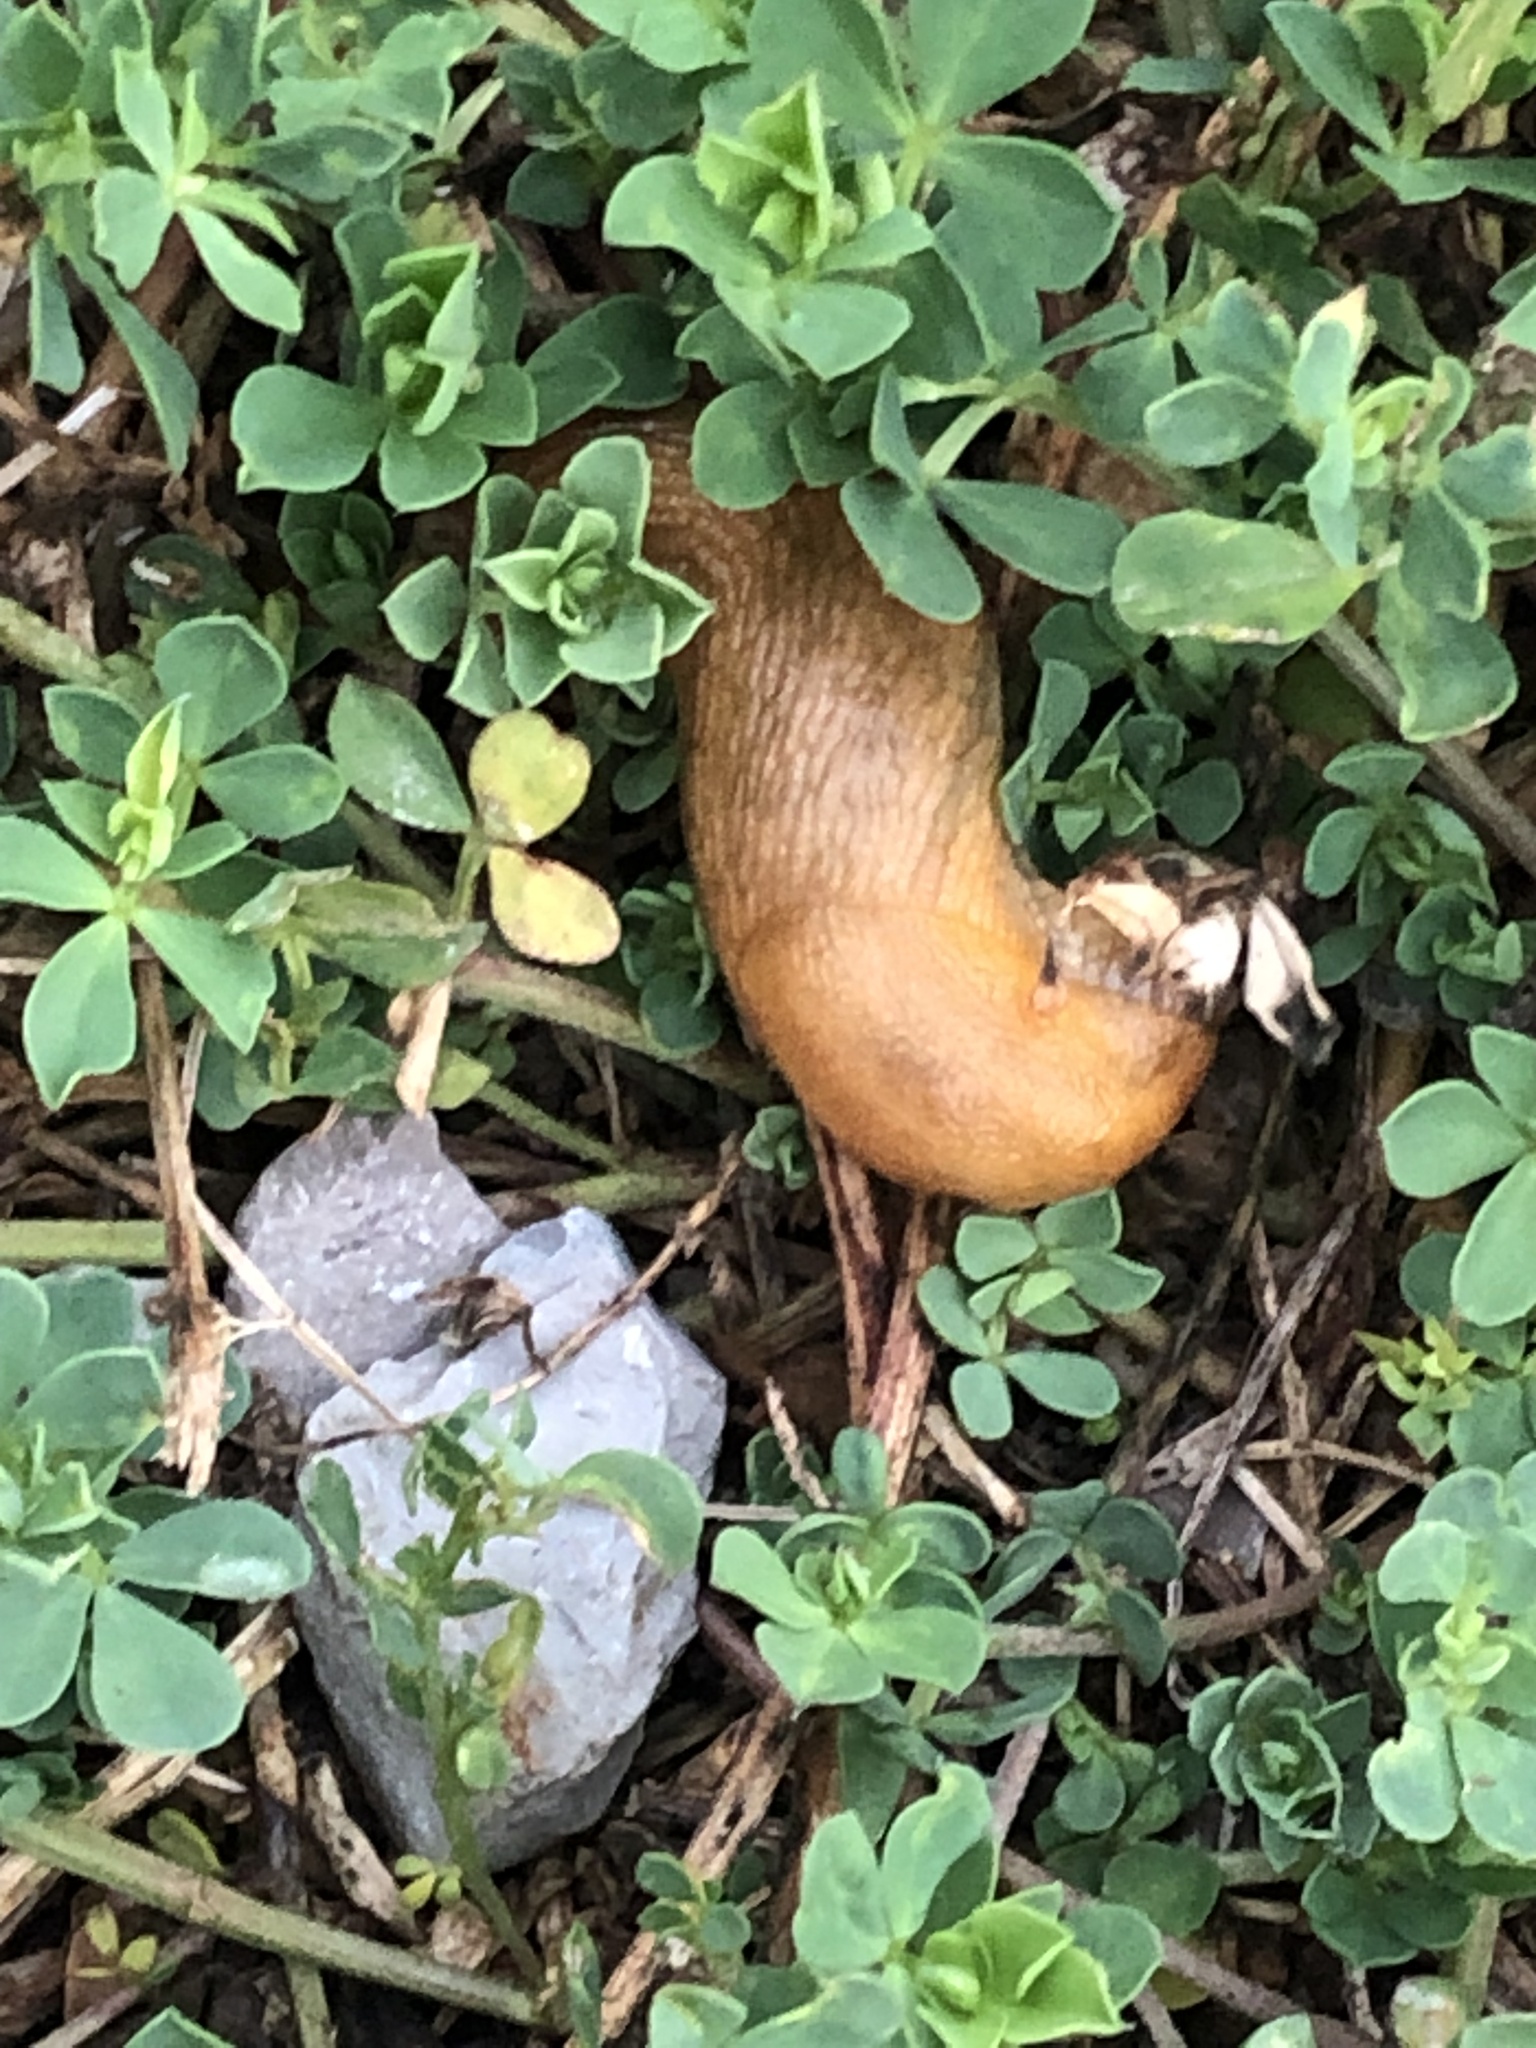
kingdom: Animalia
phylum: Mollusca
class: Gastropoda
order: Stylommatophora
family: Arionidae
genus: Arion
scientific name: Arion subfuscus
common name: Dusky arion
